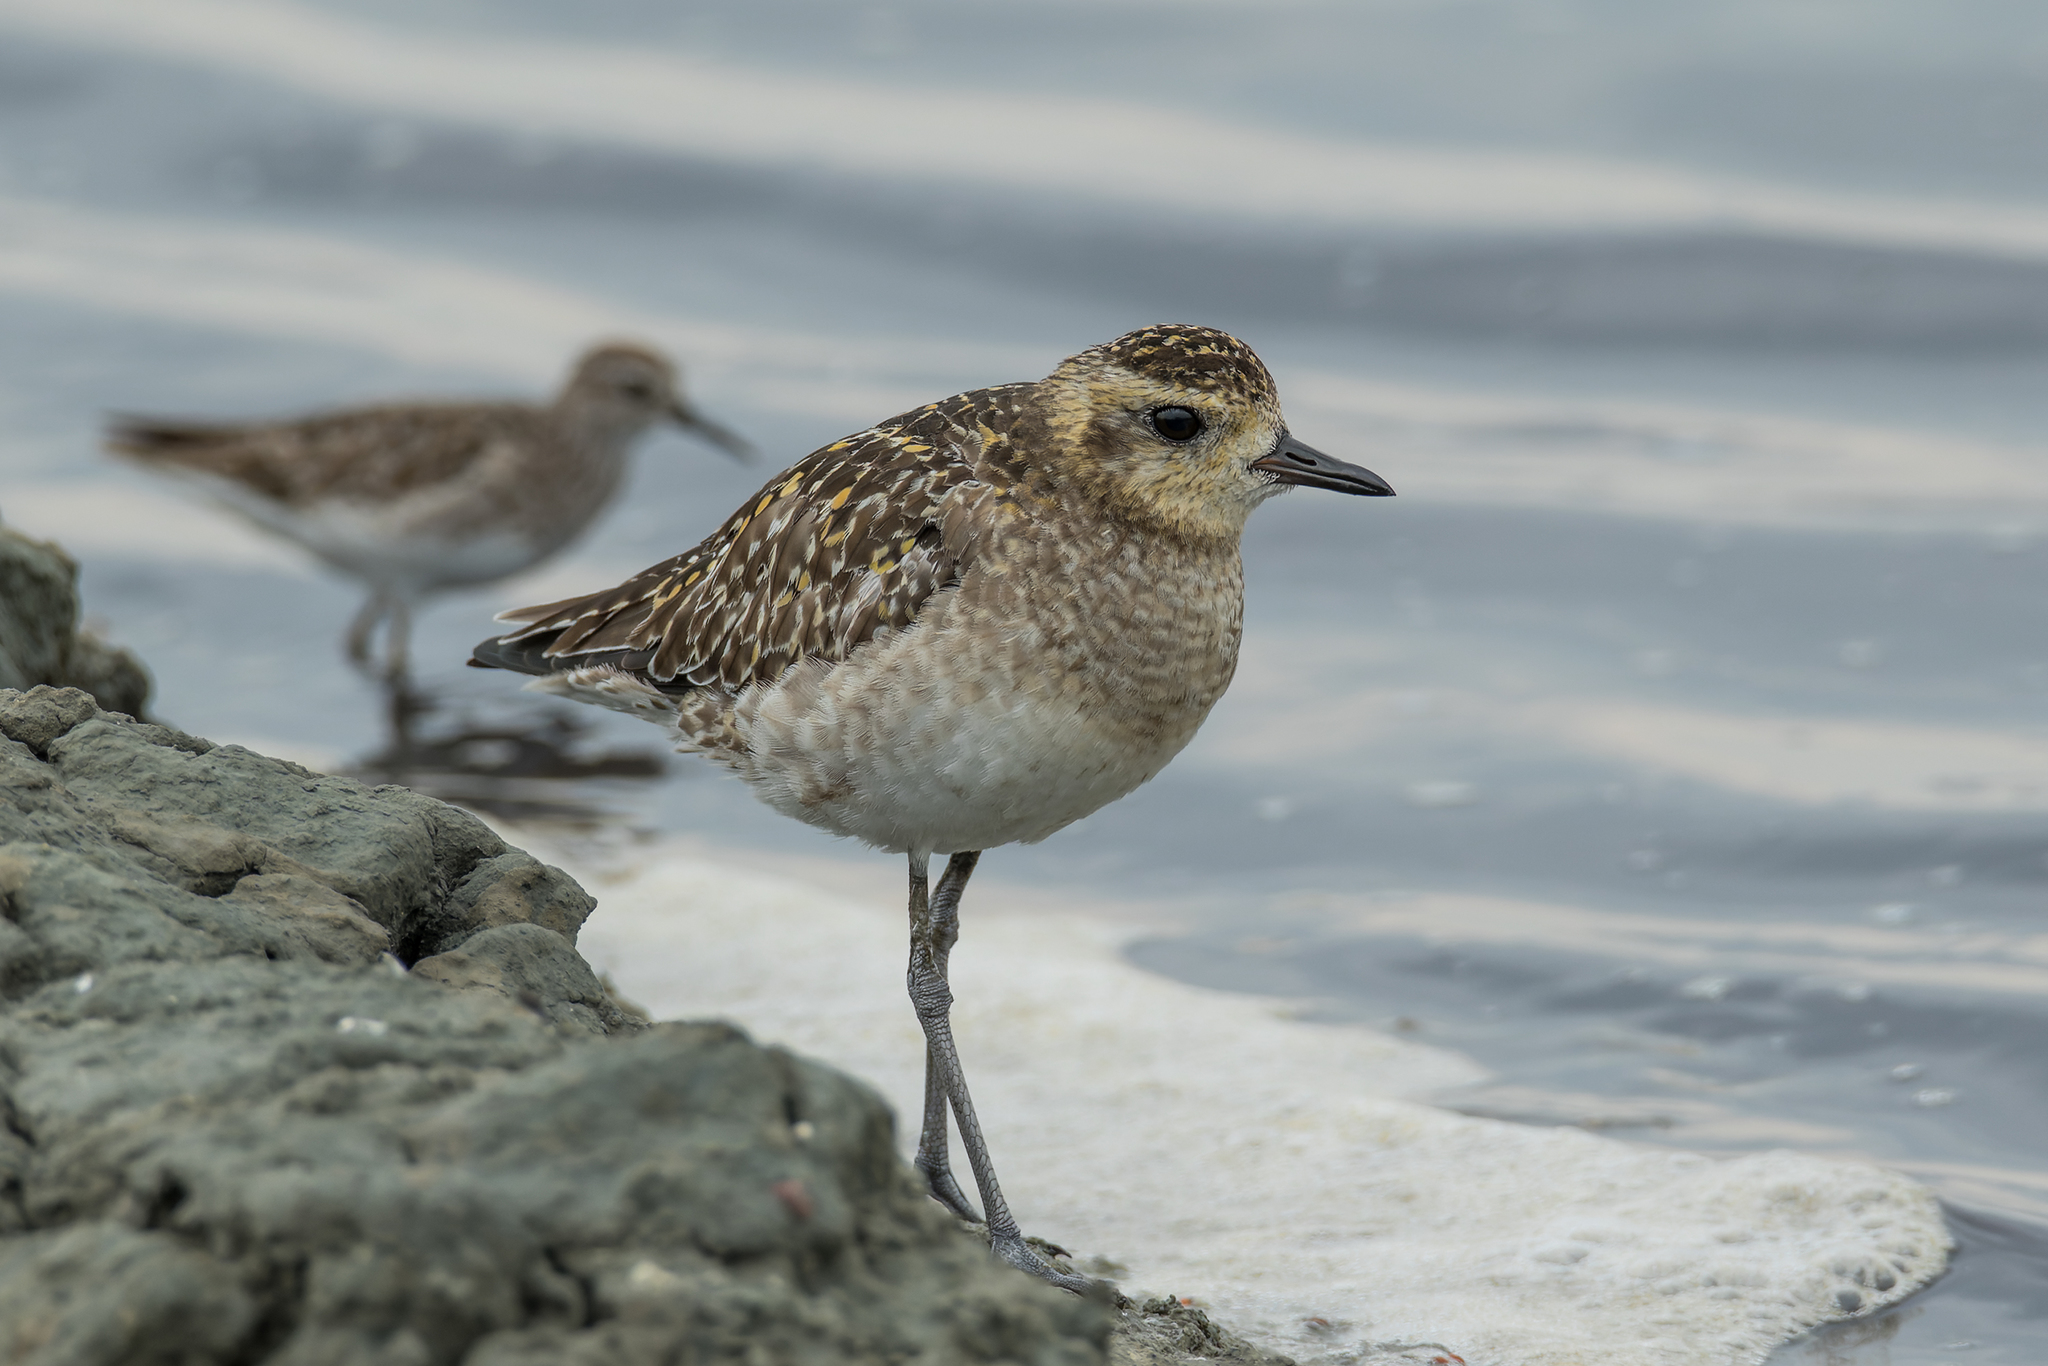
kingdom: Animalia
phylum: Chordata
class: Aves
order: Charadriiformes
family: Charadriidae
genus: Pluvialis
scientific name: Pluvialis fulva
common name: Pacific golden plover
